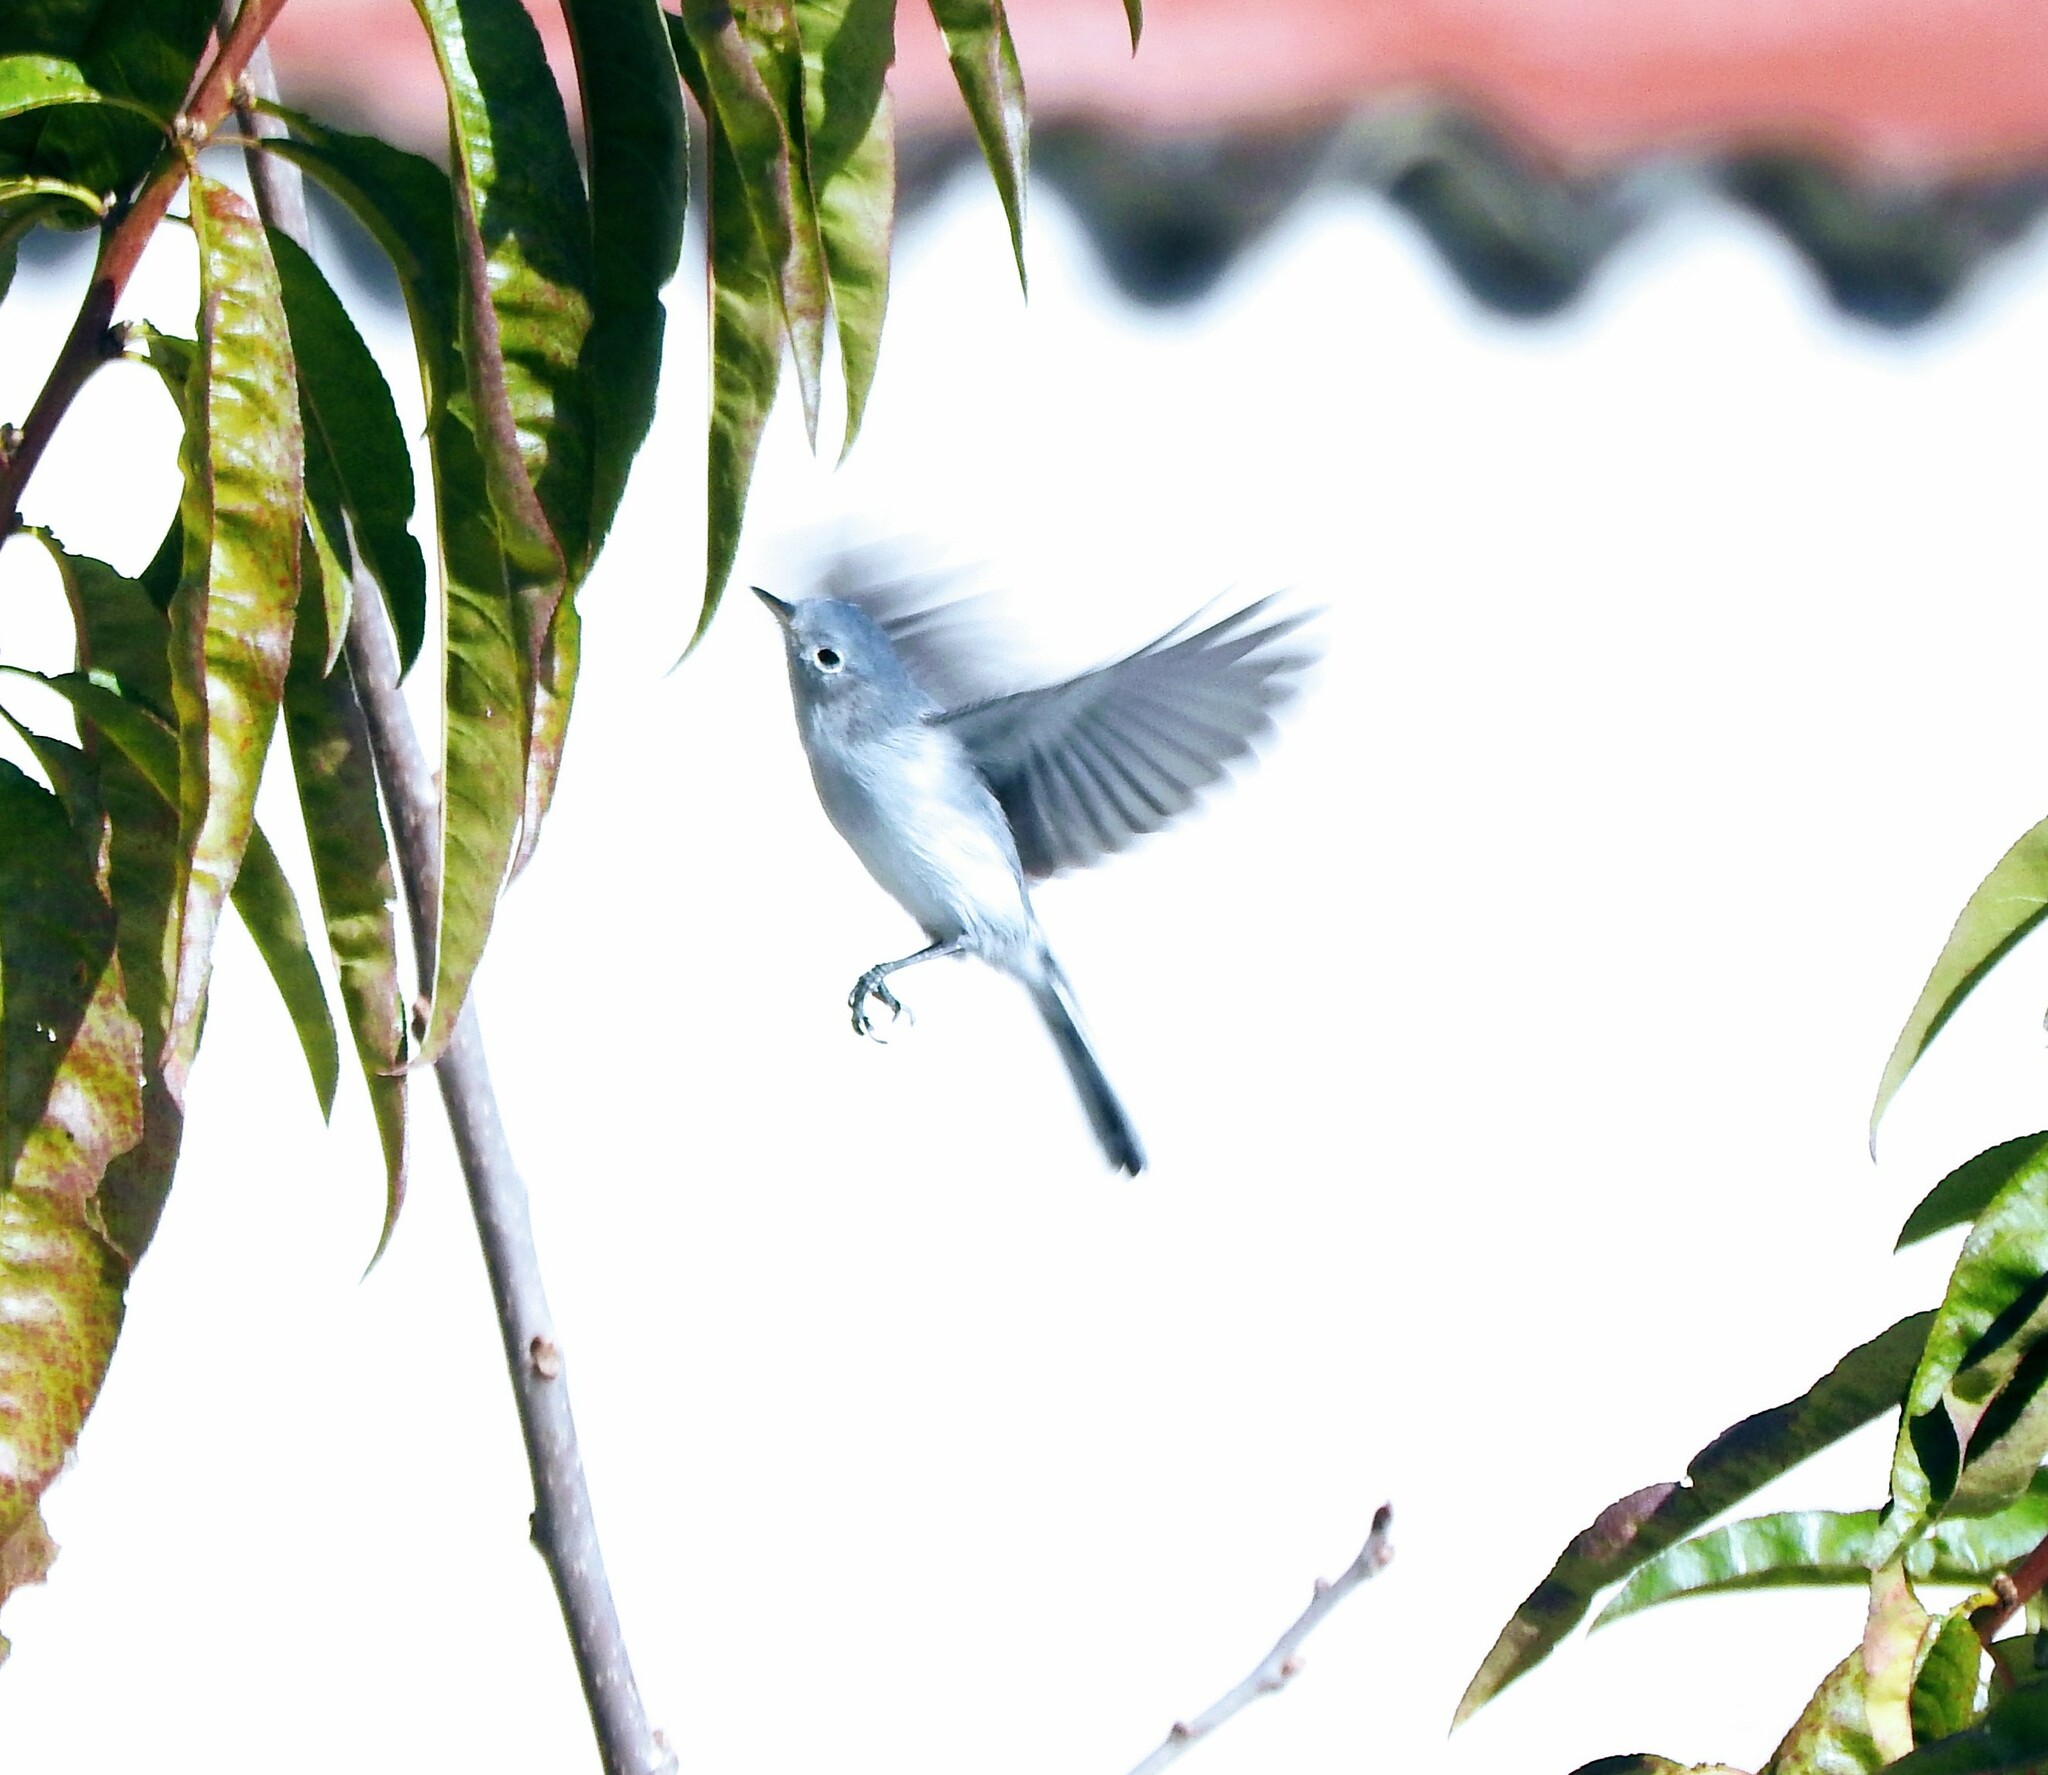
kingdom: Animalia
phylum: Chordata
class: Aves
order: Passeriformes
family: Polioptilidae
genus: Polioptila
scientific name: Polioptila caerulea
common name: Blue-gray gnatcatcher
